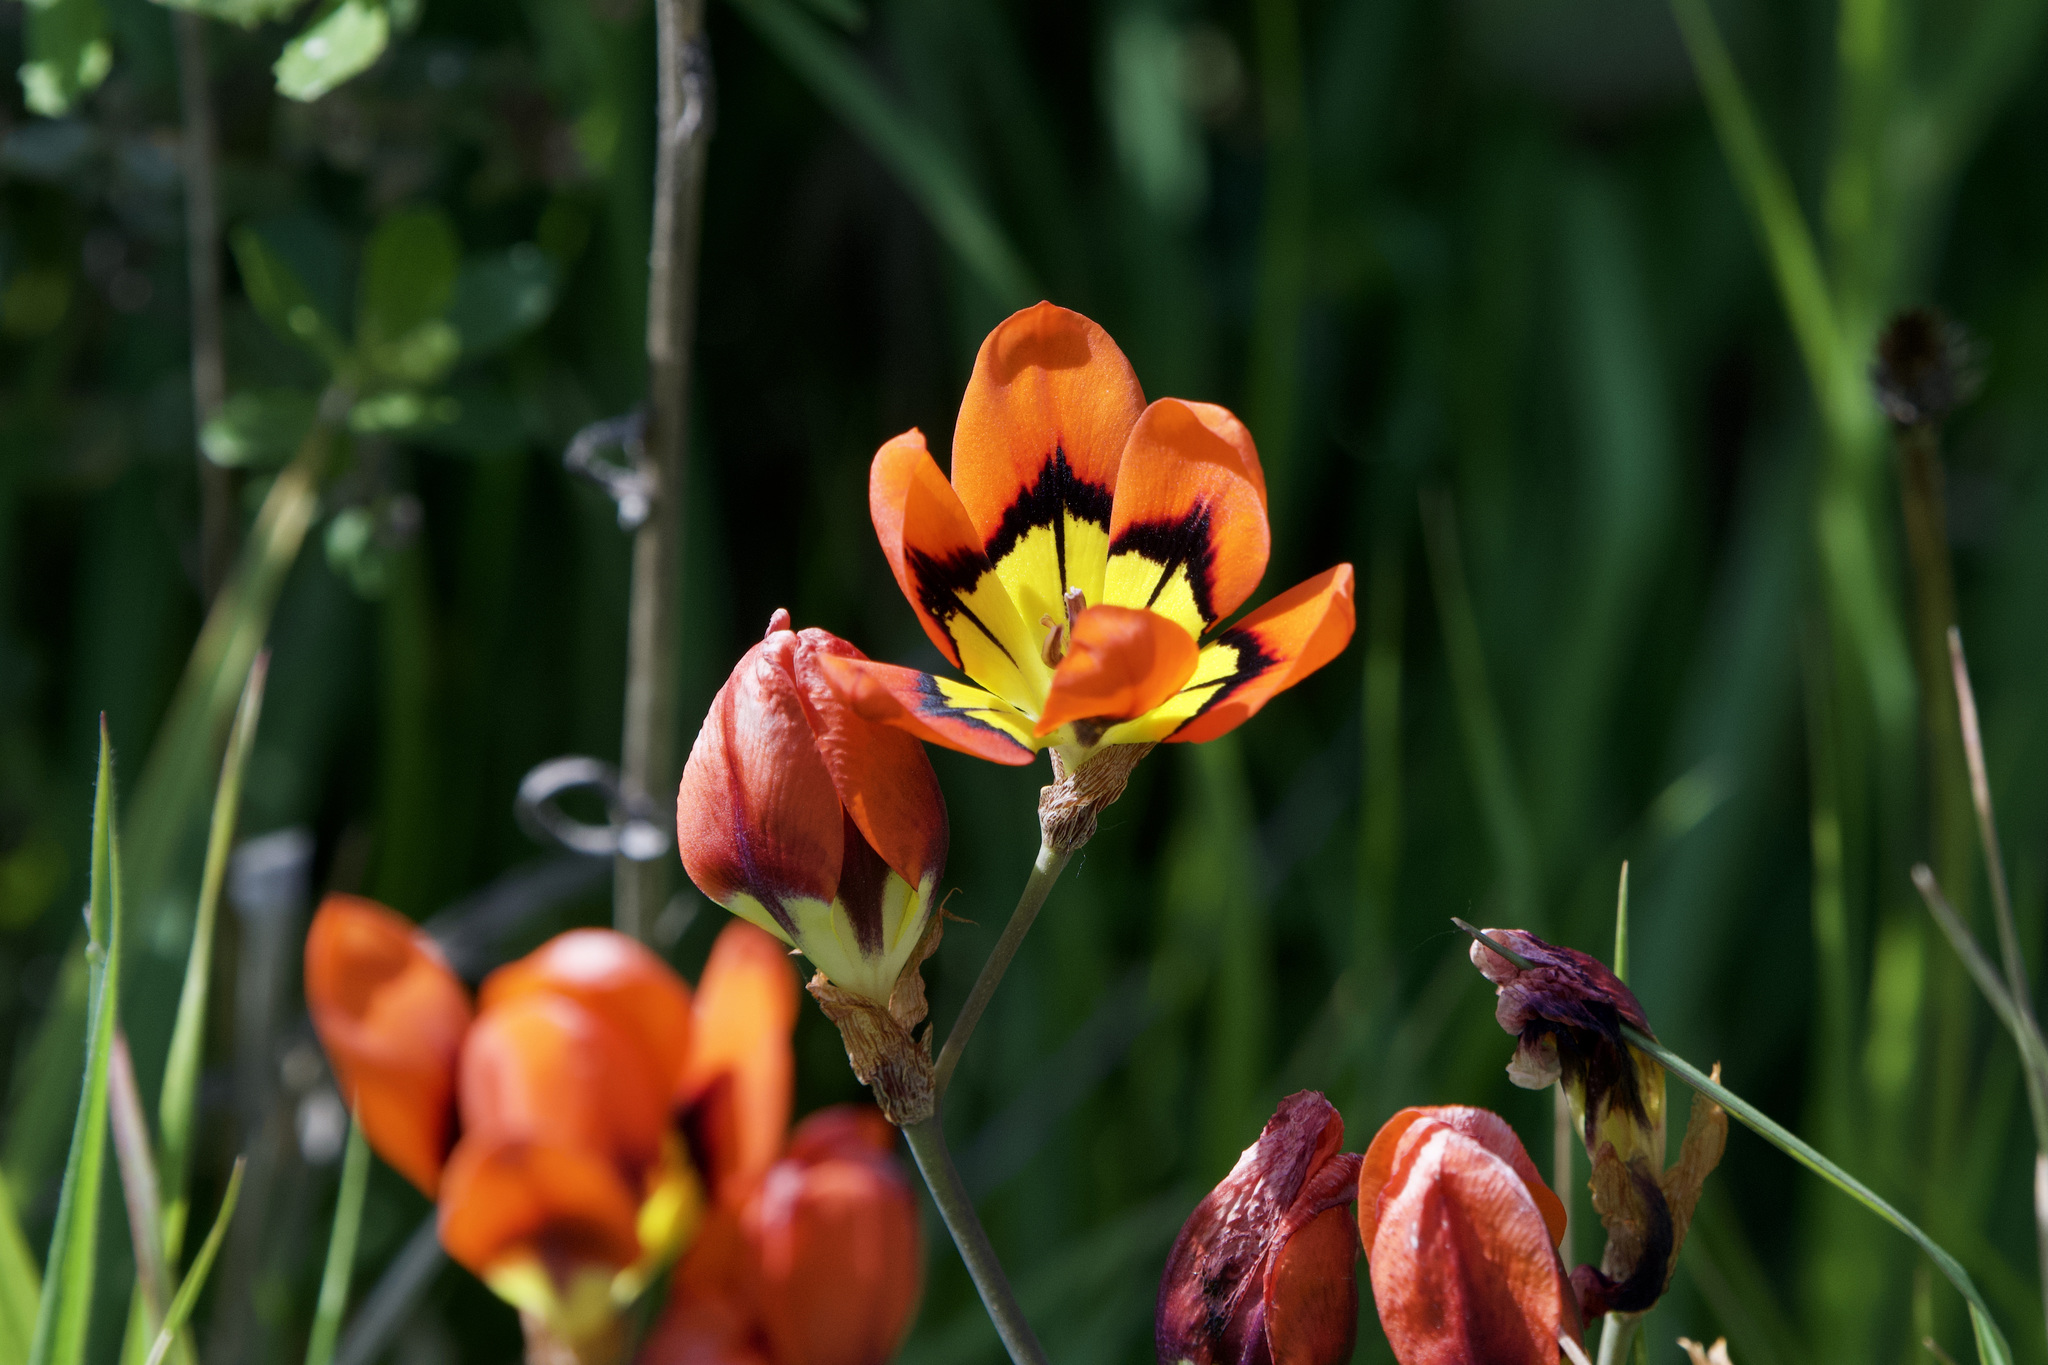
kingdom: Plantae
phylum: Tracheophyta
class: Liliopsida
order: Asparagales
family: Iridaceae
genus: Sparaxis
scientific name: Sparaxis tricolor
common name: Wandflower
